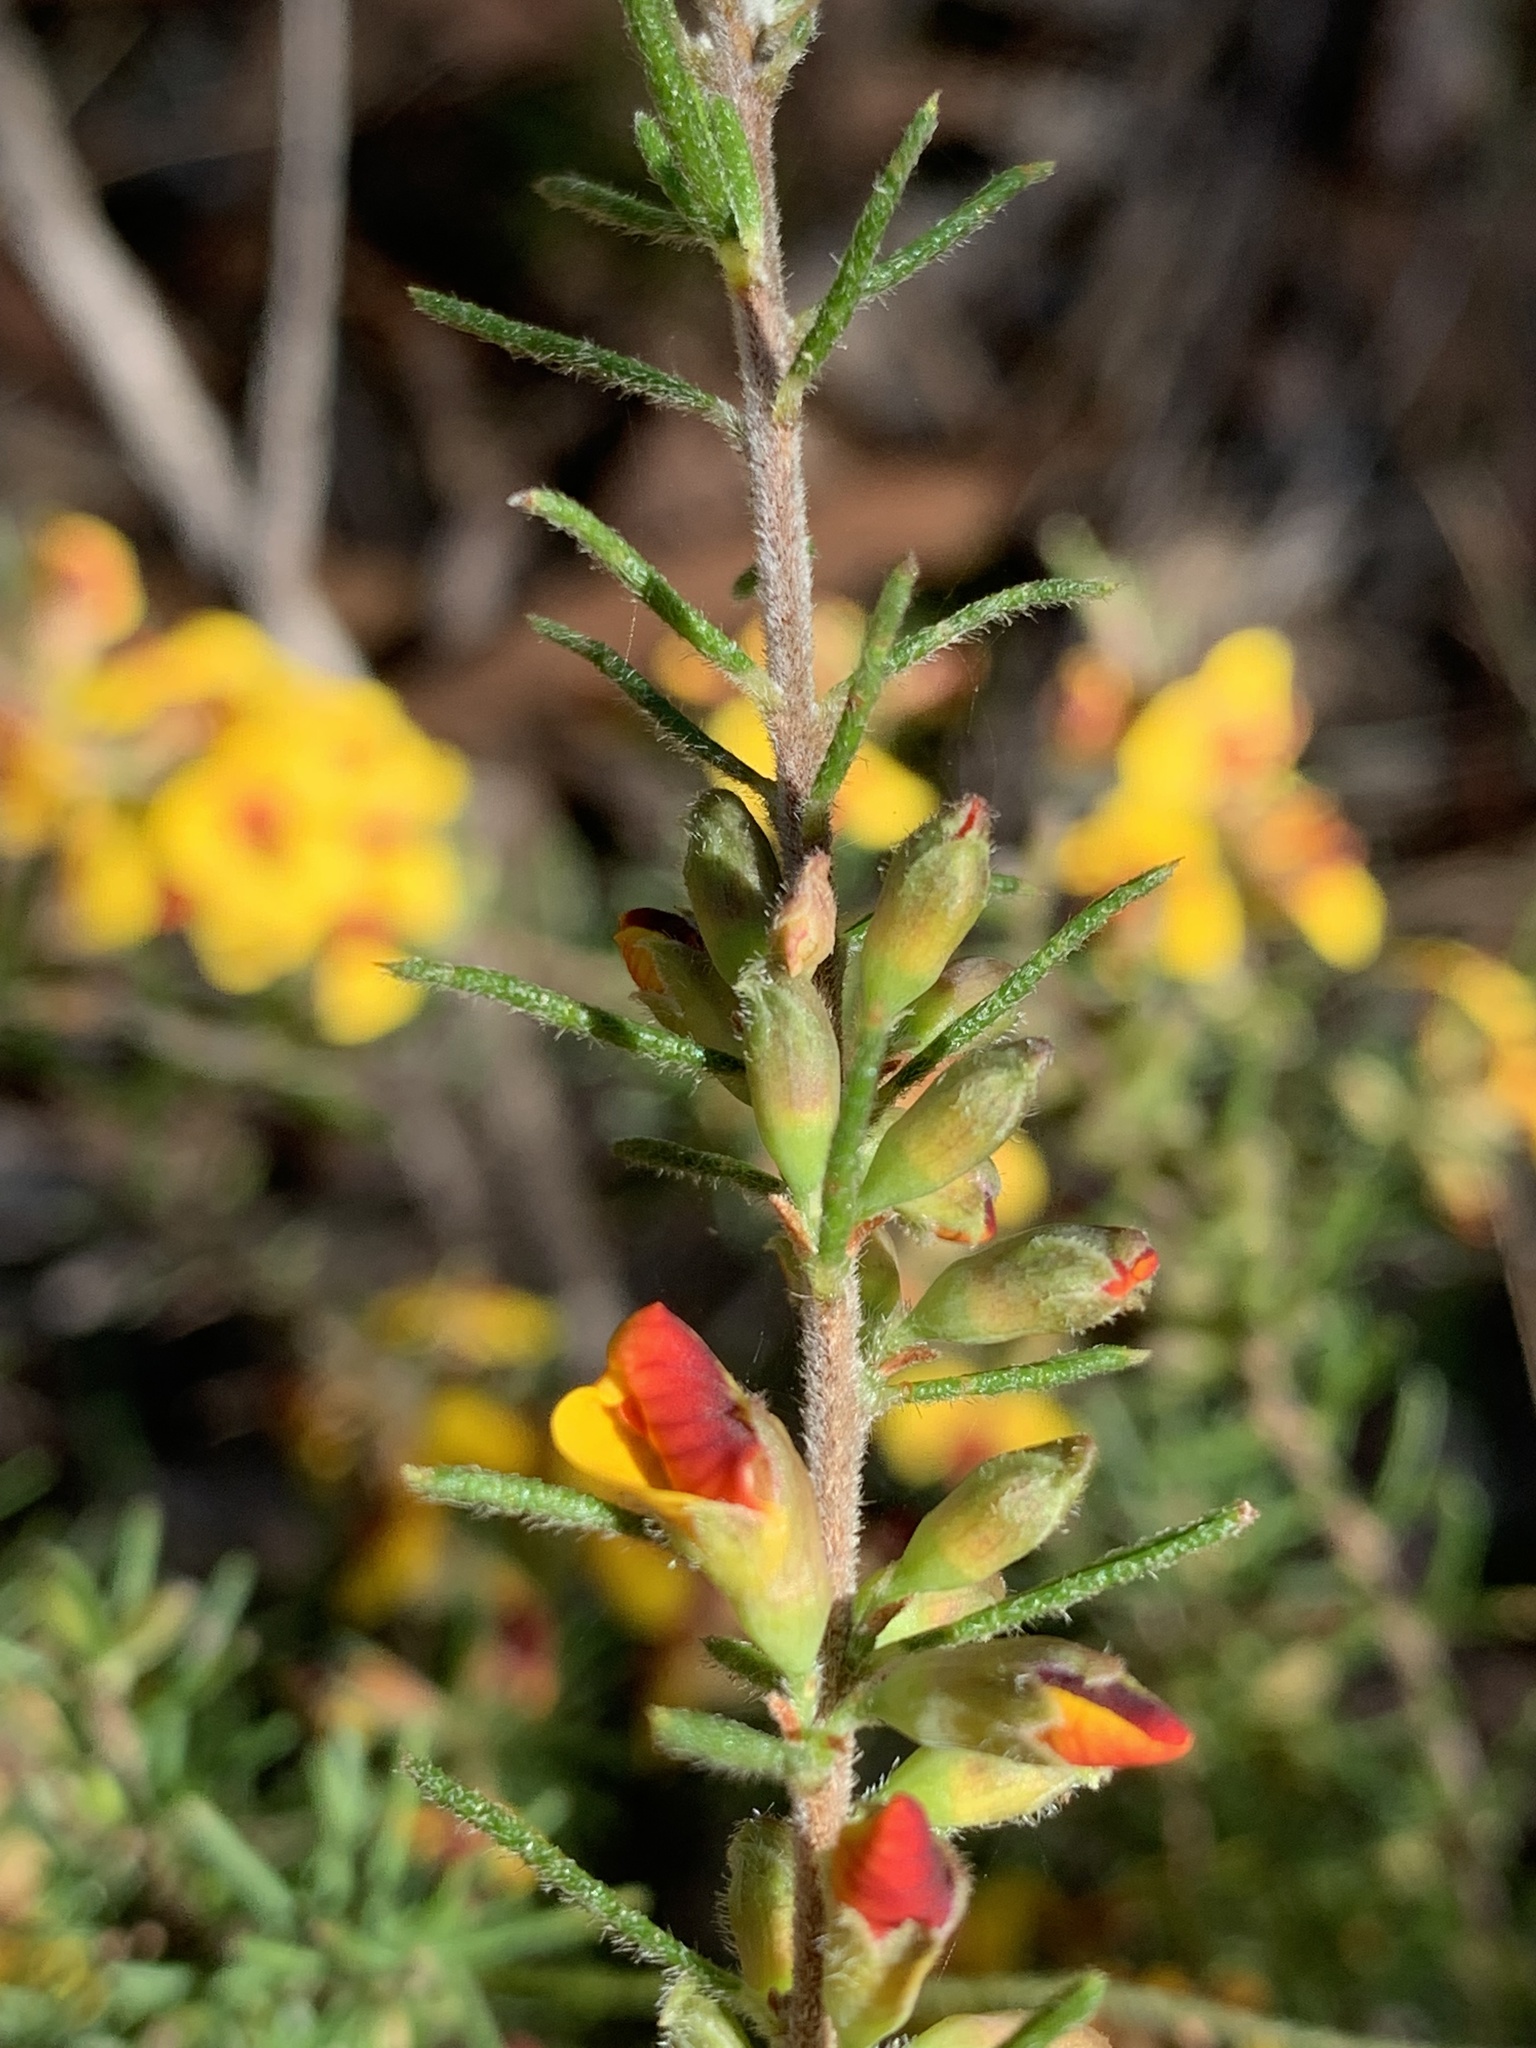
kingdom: Plantae
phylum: Tracheophyta
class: Magnoliopsida
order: Fabales
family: Fabaceae
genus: Dillwynia
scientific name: Dillwynia sericea
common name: Showy parrot-pea
